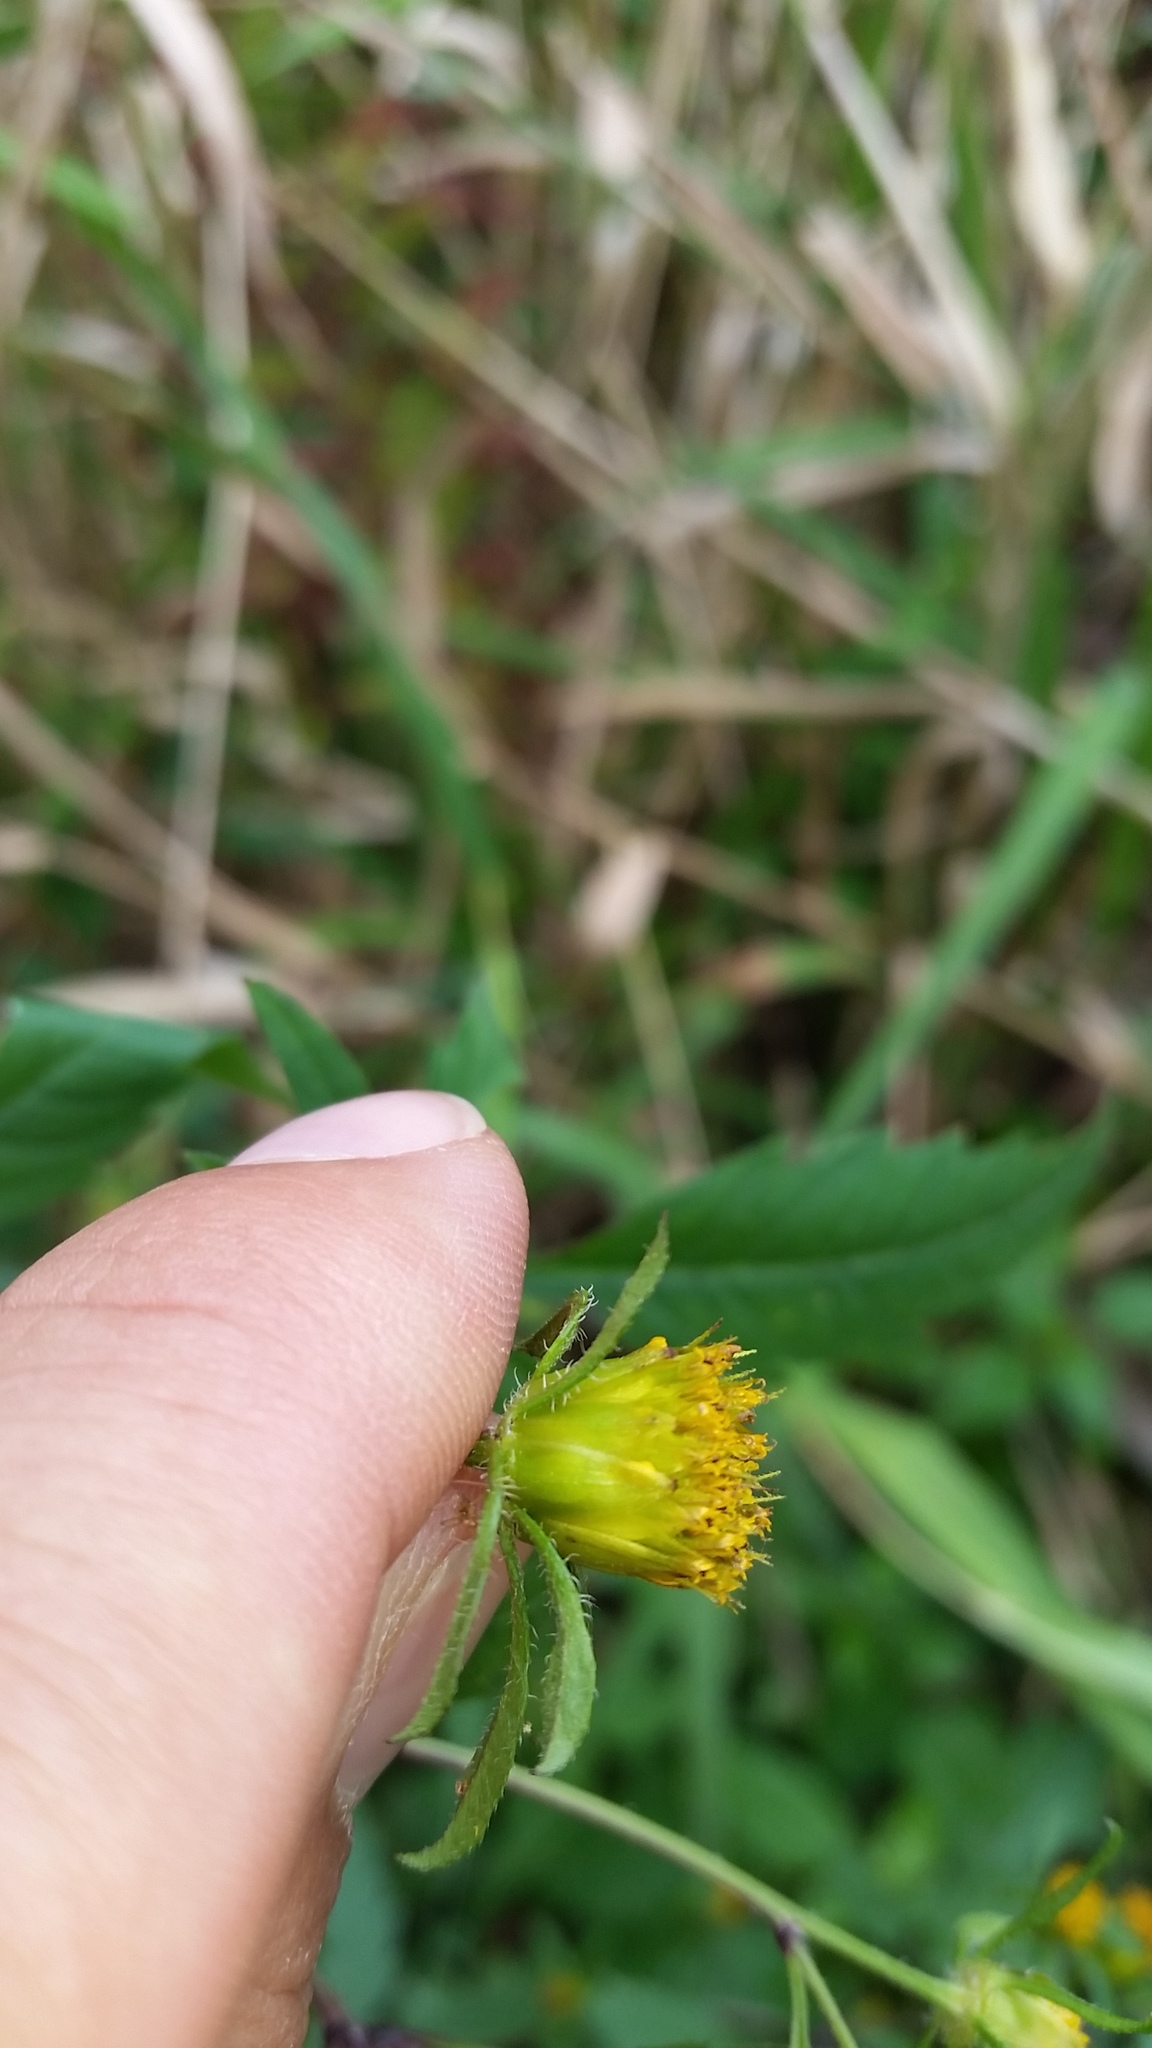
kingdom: Plantae
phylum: Tracheophyta
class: Magnoliopsida
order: Asterales
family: Asteraceae
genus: Bidens
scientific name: Bidens frondosa
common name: Beggarticks
